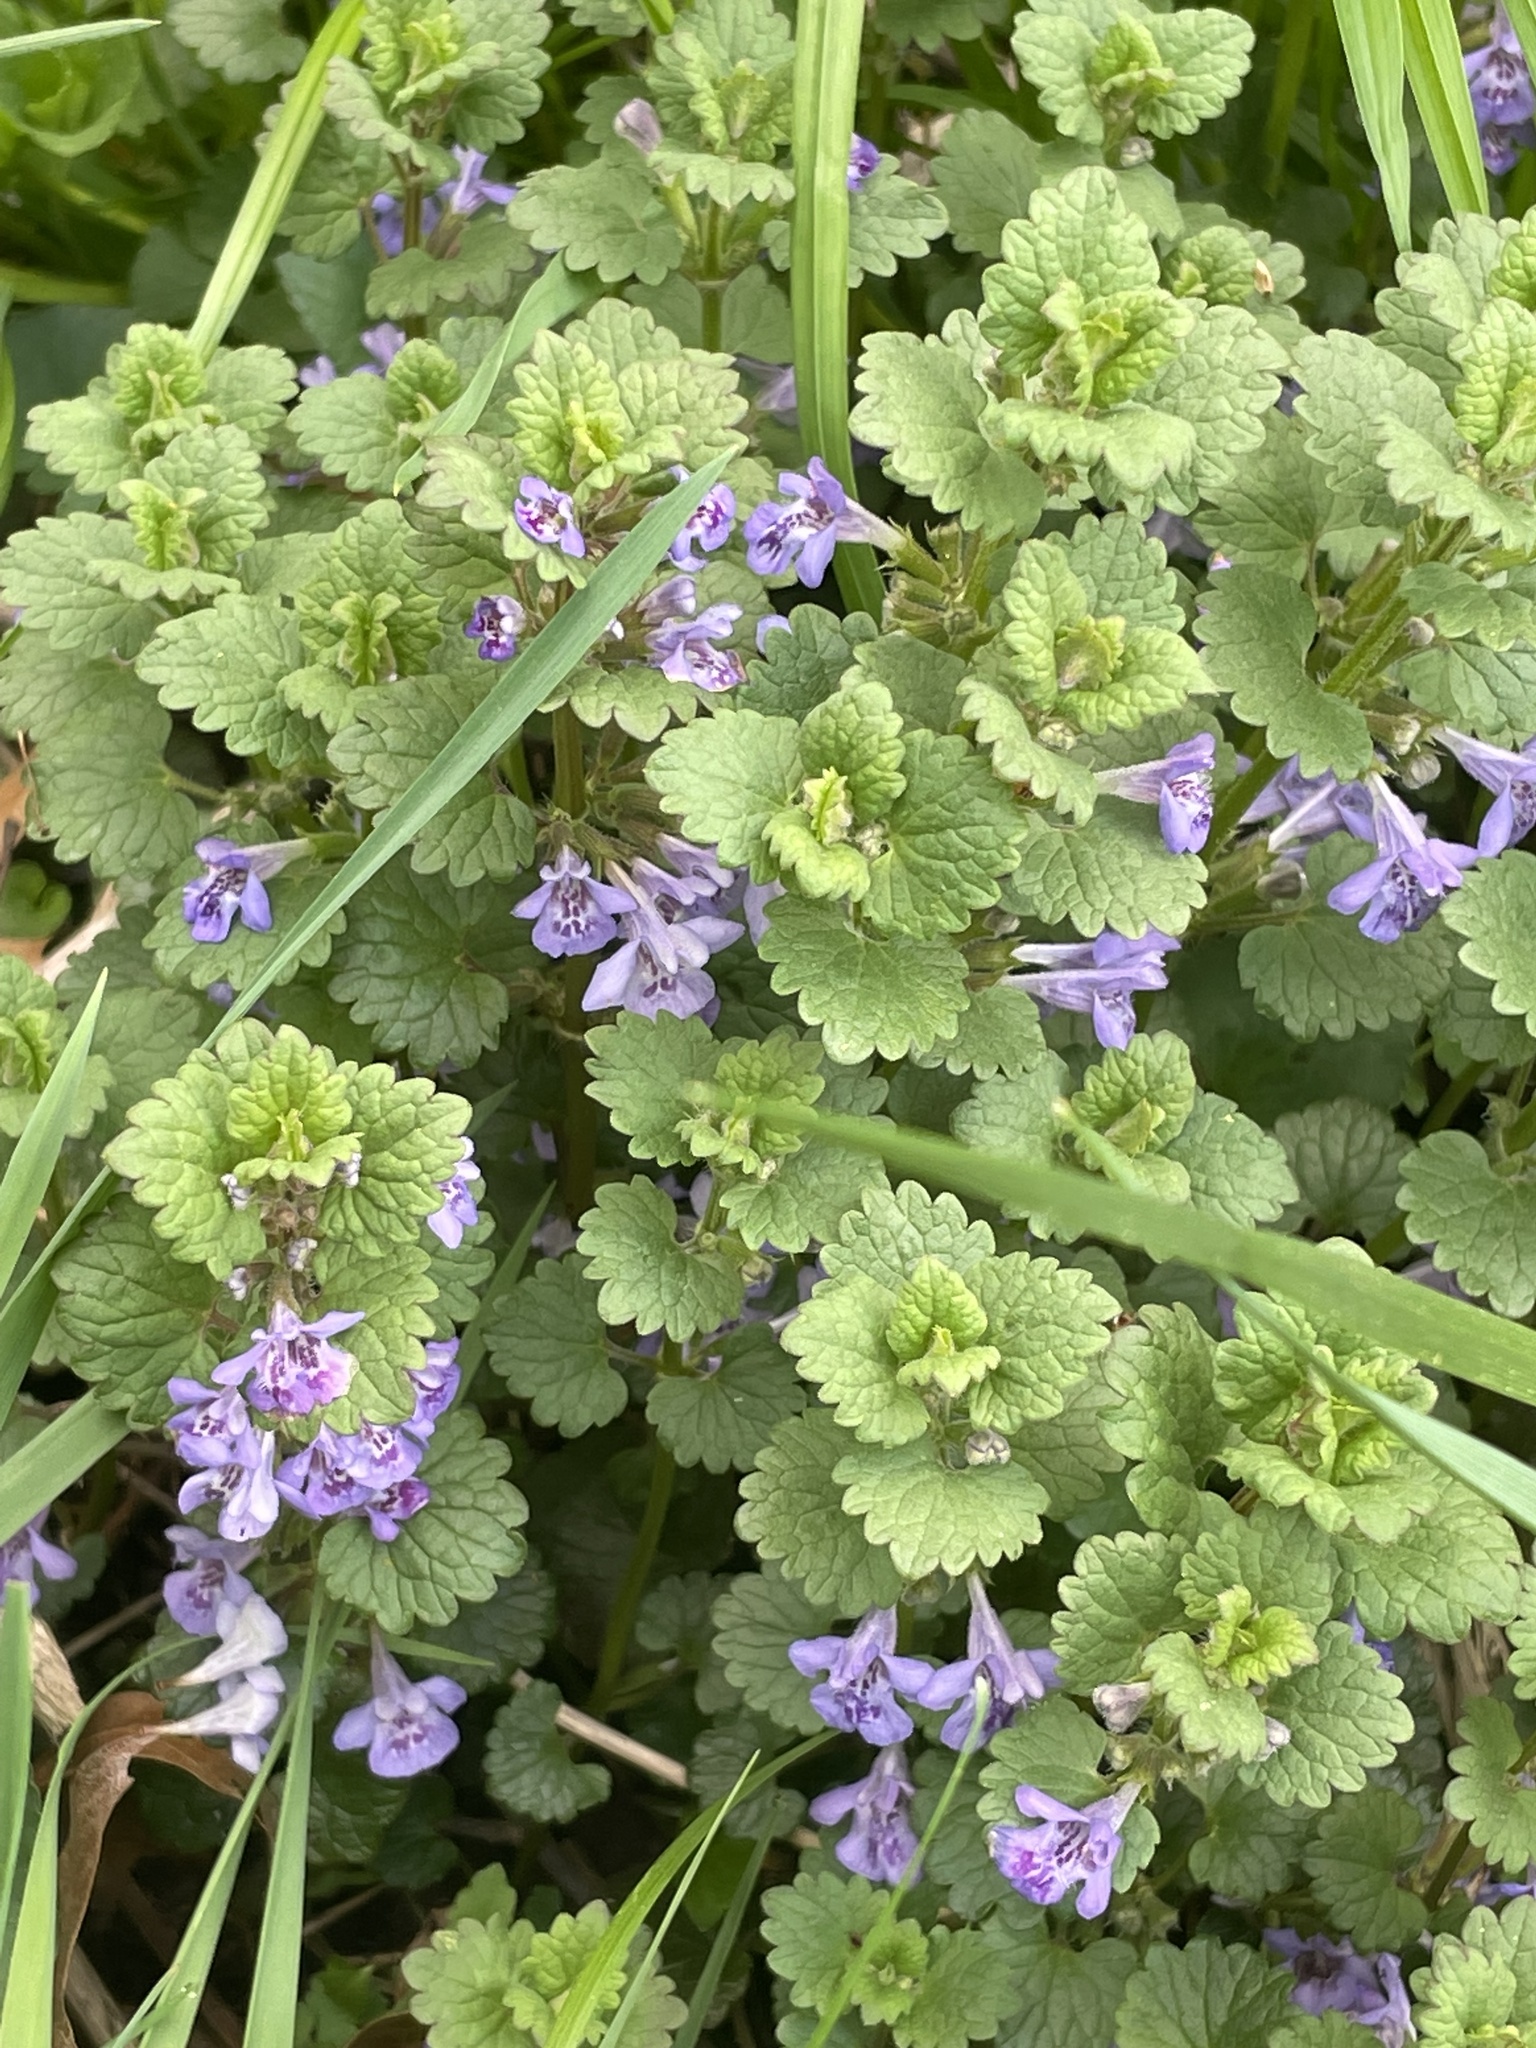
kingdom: Plantae
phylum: Tracheophyta
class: Magnoliopsida
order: Lamiales
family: Lamiaceae
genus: Glechoma
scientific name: Glechoma hederacea
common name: Ground ivy
